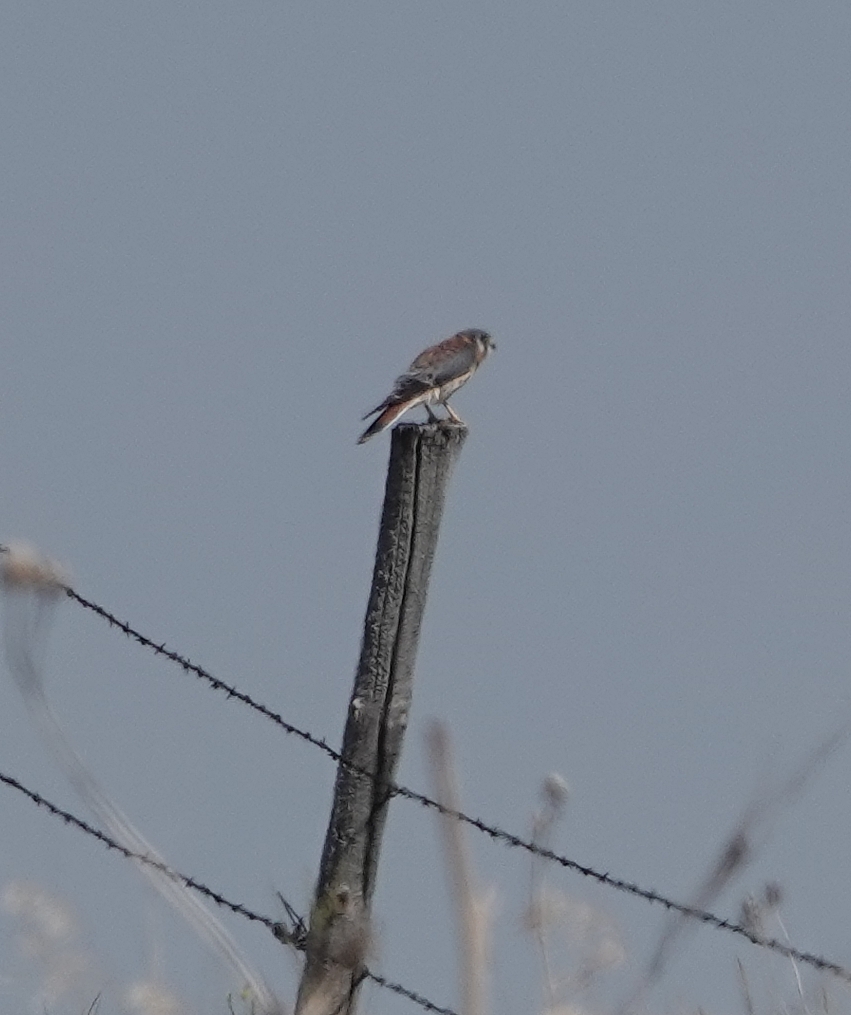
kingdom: Animalia
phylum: Chordata
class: Aves
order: Falconiformes
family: Falconidae
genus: Falco
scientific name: Falco sparverius
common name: American kestrel
